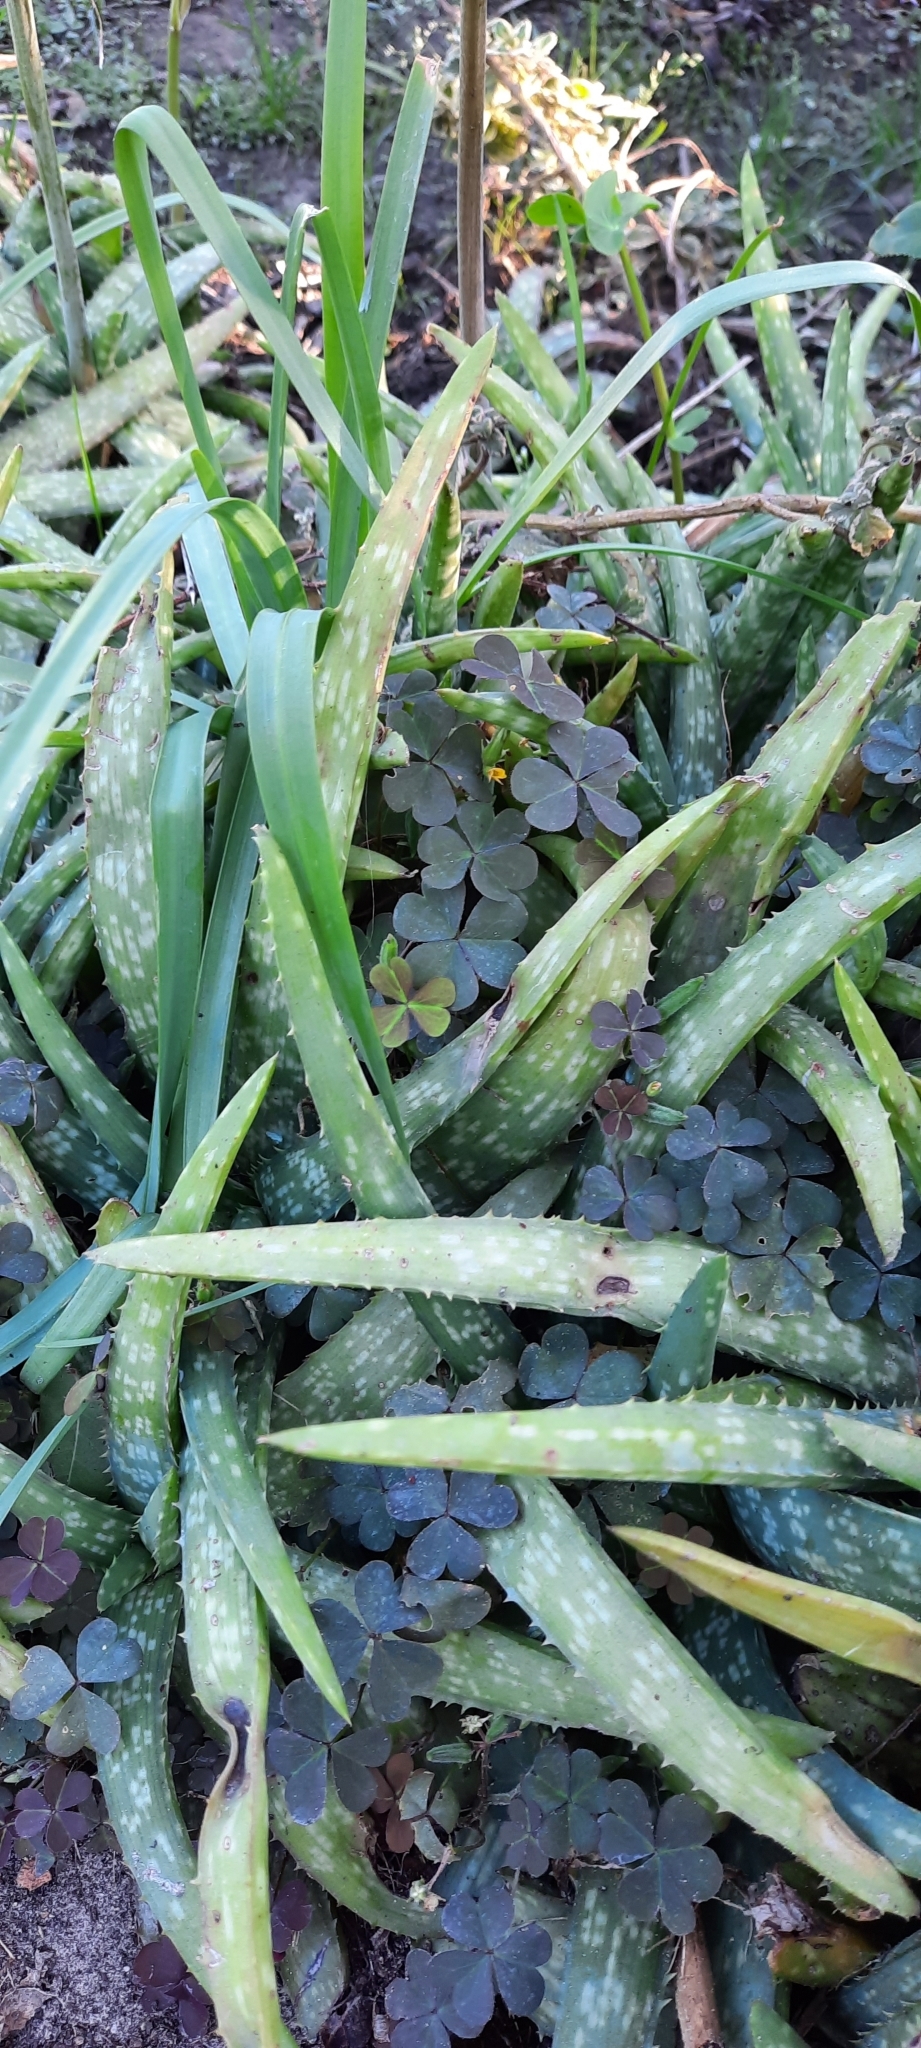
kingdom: Plantae
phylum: Tracheophyta
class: Magnoliopsida
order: Oxalidales
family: Oxalidaceae
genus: Oxalis
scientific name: Oxalis corniculata
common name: Procumbent yellow-sorrel
